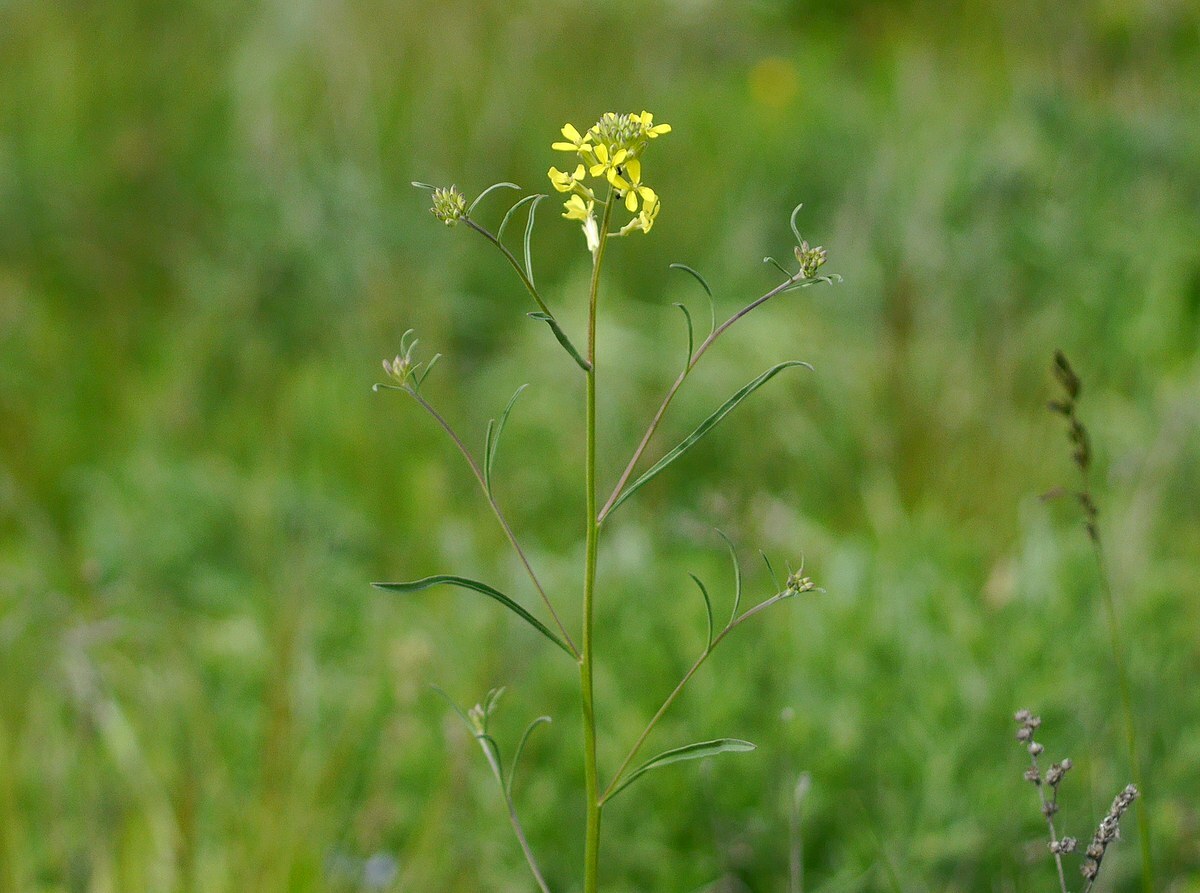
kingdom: Plantae
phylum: Tracheophyta
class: Magnoliopsida
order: Brassicales
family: Brassicaceae
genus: Erysimum
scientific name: Erysimum diffusum
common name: Diffuse wallflower
